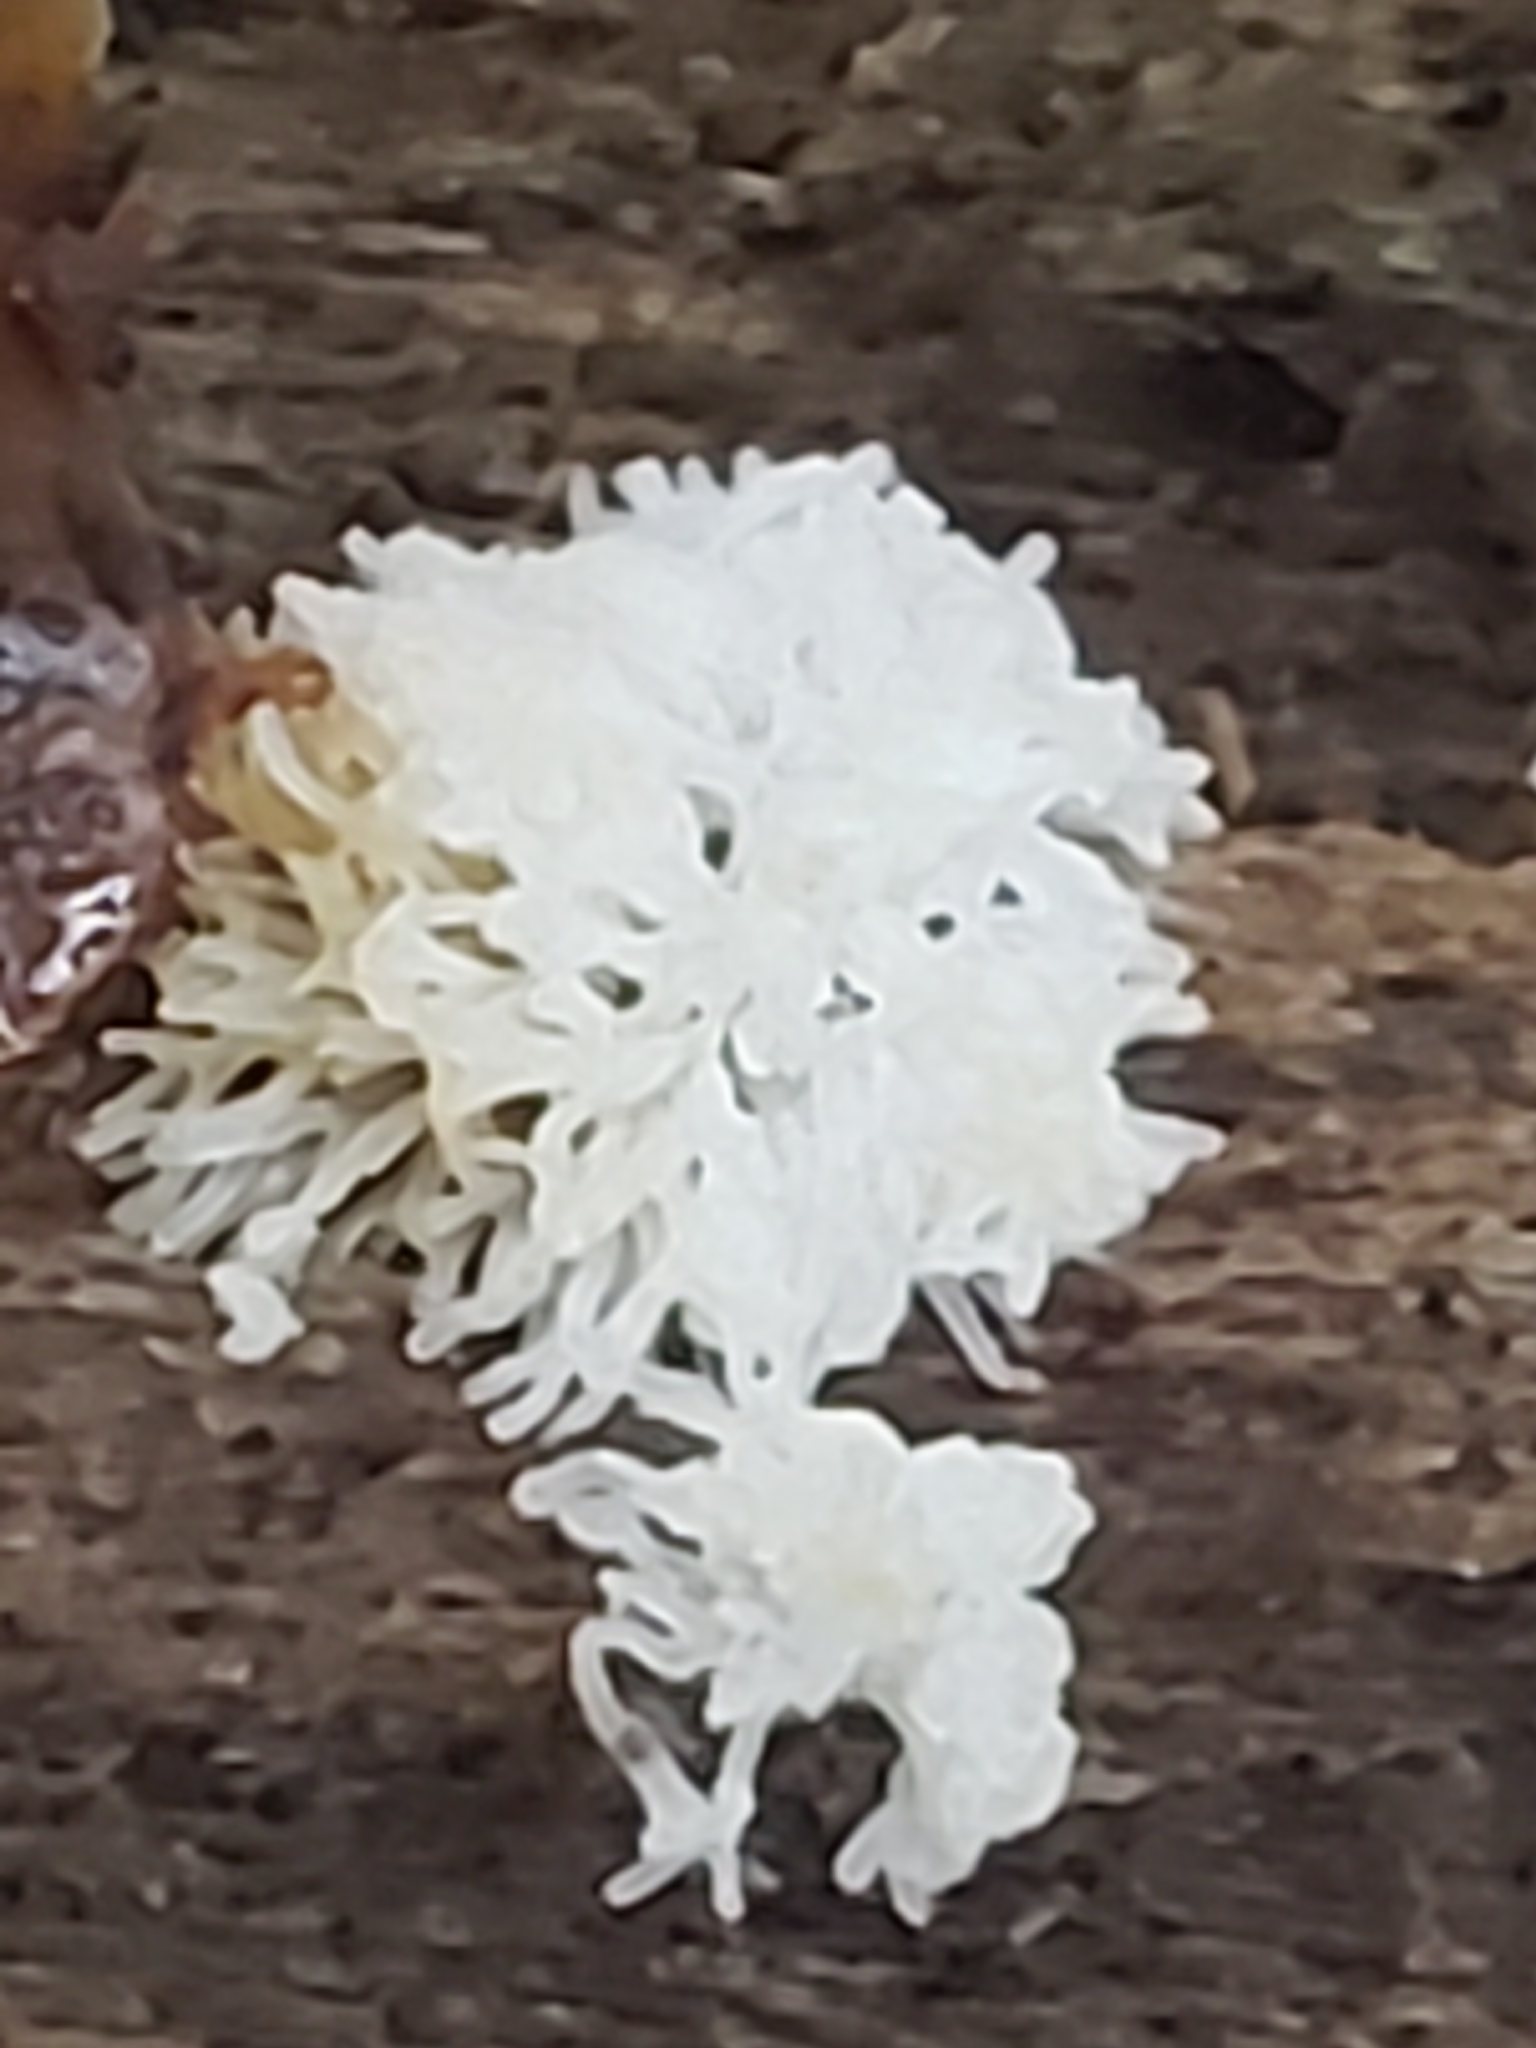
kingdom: Protozoa
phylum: Mycetozoa
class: Protosteliomycetes
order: Ceratiomyxales
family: Ceratiomyxaceae
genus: Ceratiomyxa
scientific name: Ceratiomyxa fruticulosa
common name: Honeycomb coral slime mold
